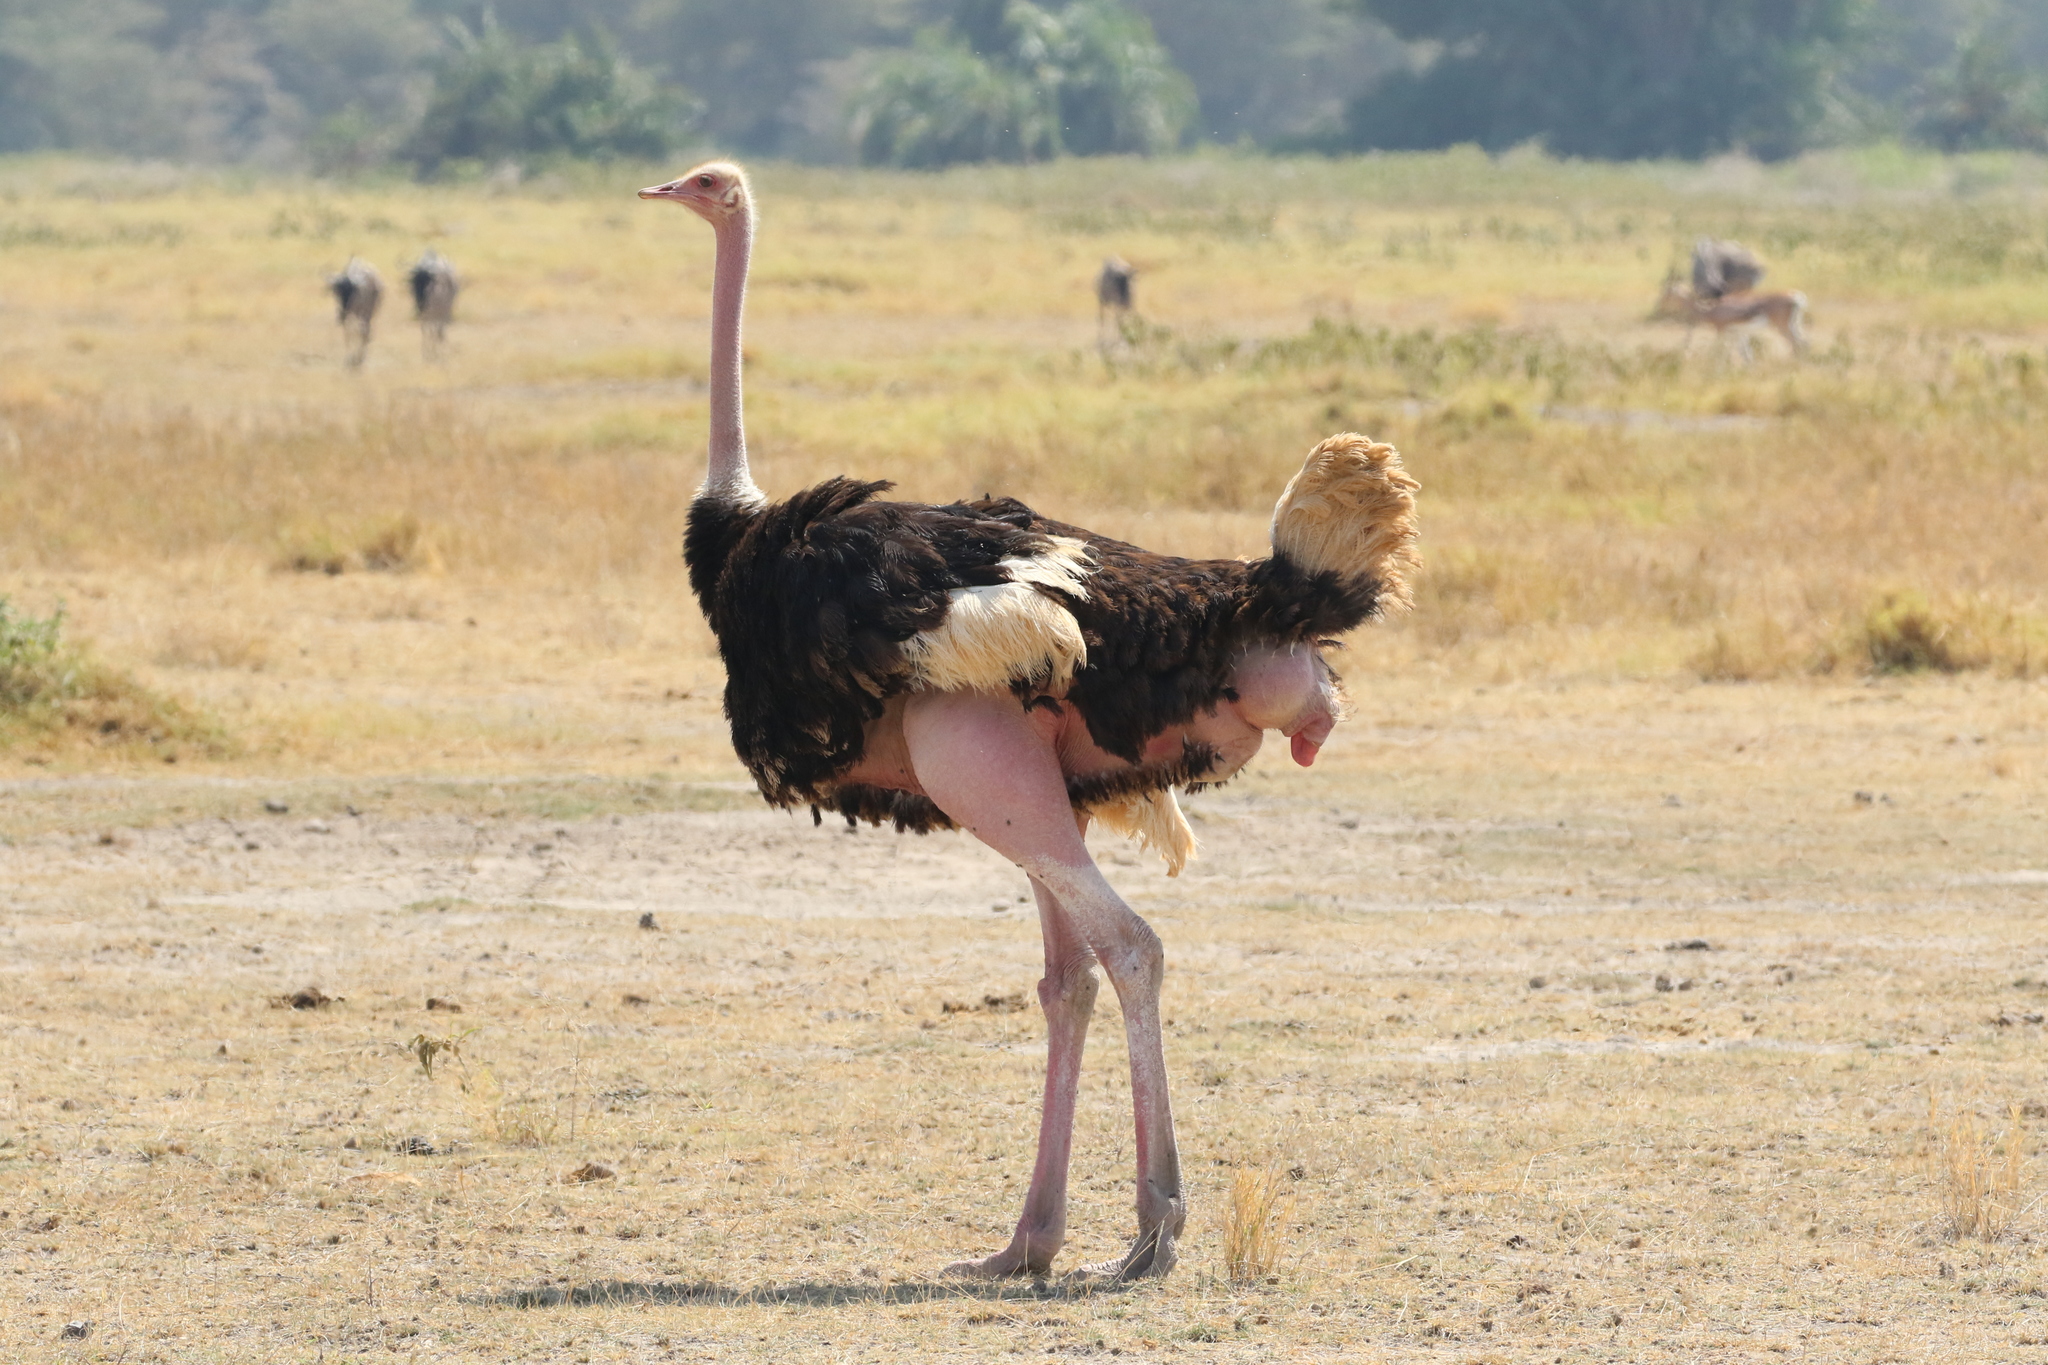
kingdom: Animalia
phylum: Chordata
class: Aves
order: Struthioniformes
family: Struthionidae
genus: Struthio
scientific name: Struthio camelus
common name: Common ostrich
